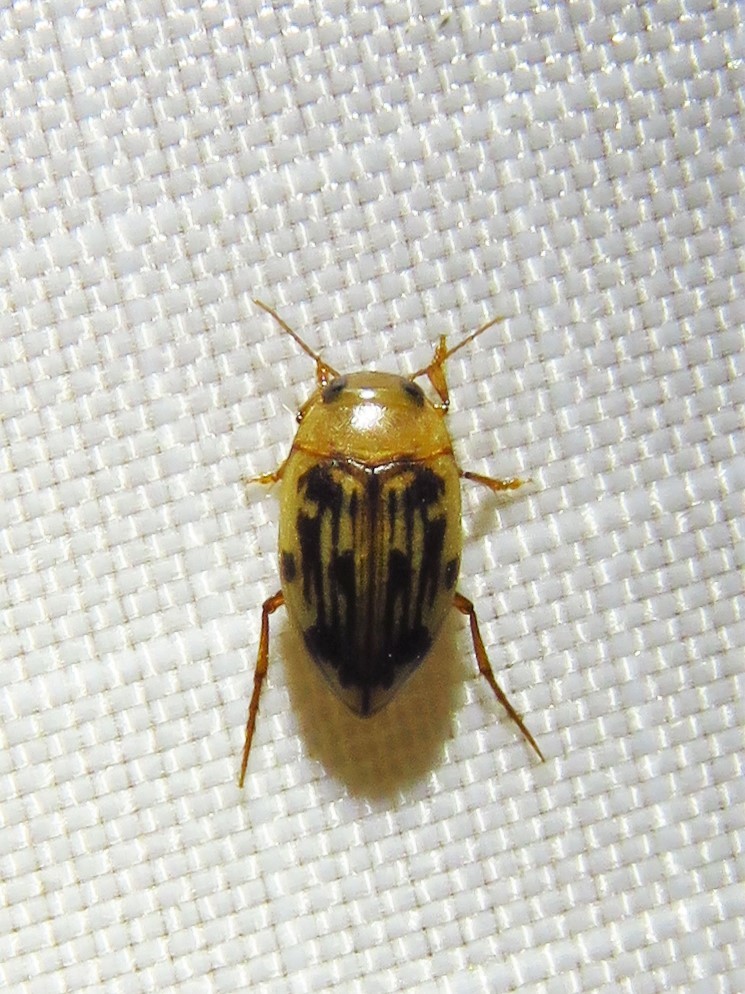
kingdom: Animalia
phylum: Arthropoda
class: Insecta
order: Coleoptera
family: Dytiscidae
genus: Neoporus
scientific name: Neoporus dimidiatus
